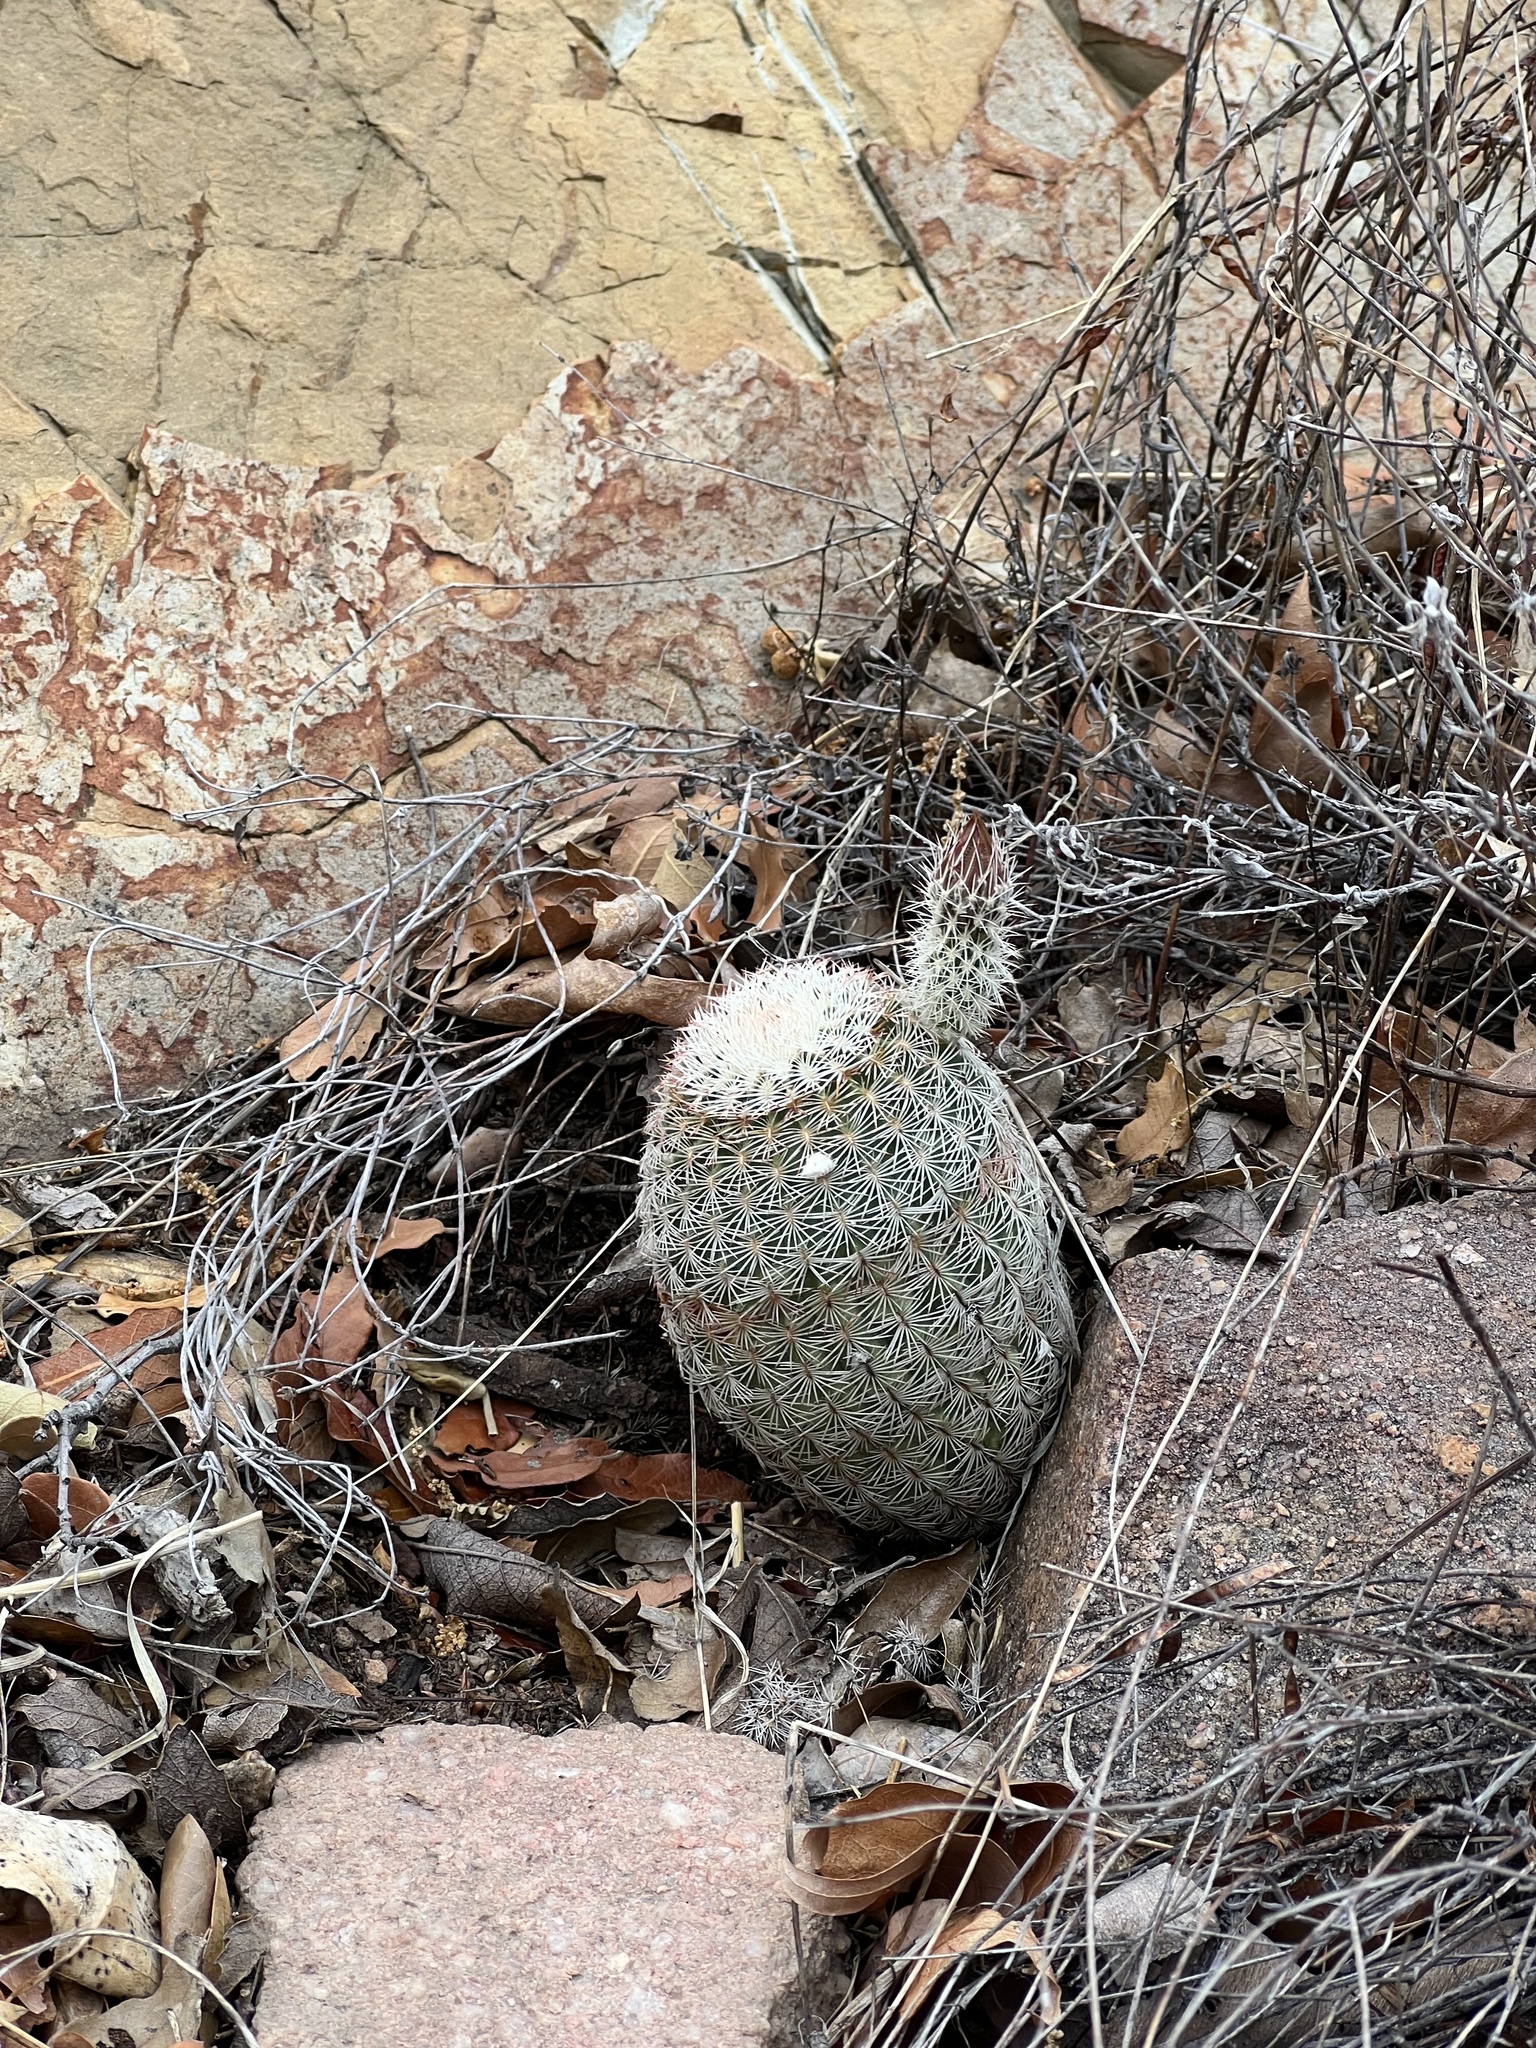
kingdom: Plantae
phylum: Tracheophyta
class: Magnoliopsida
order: Caryophyllales
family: Cactaceae
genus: Echinocereus
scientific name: Echinocereus rigidissimus
